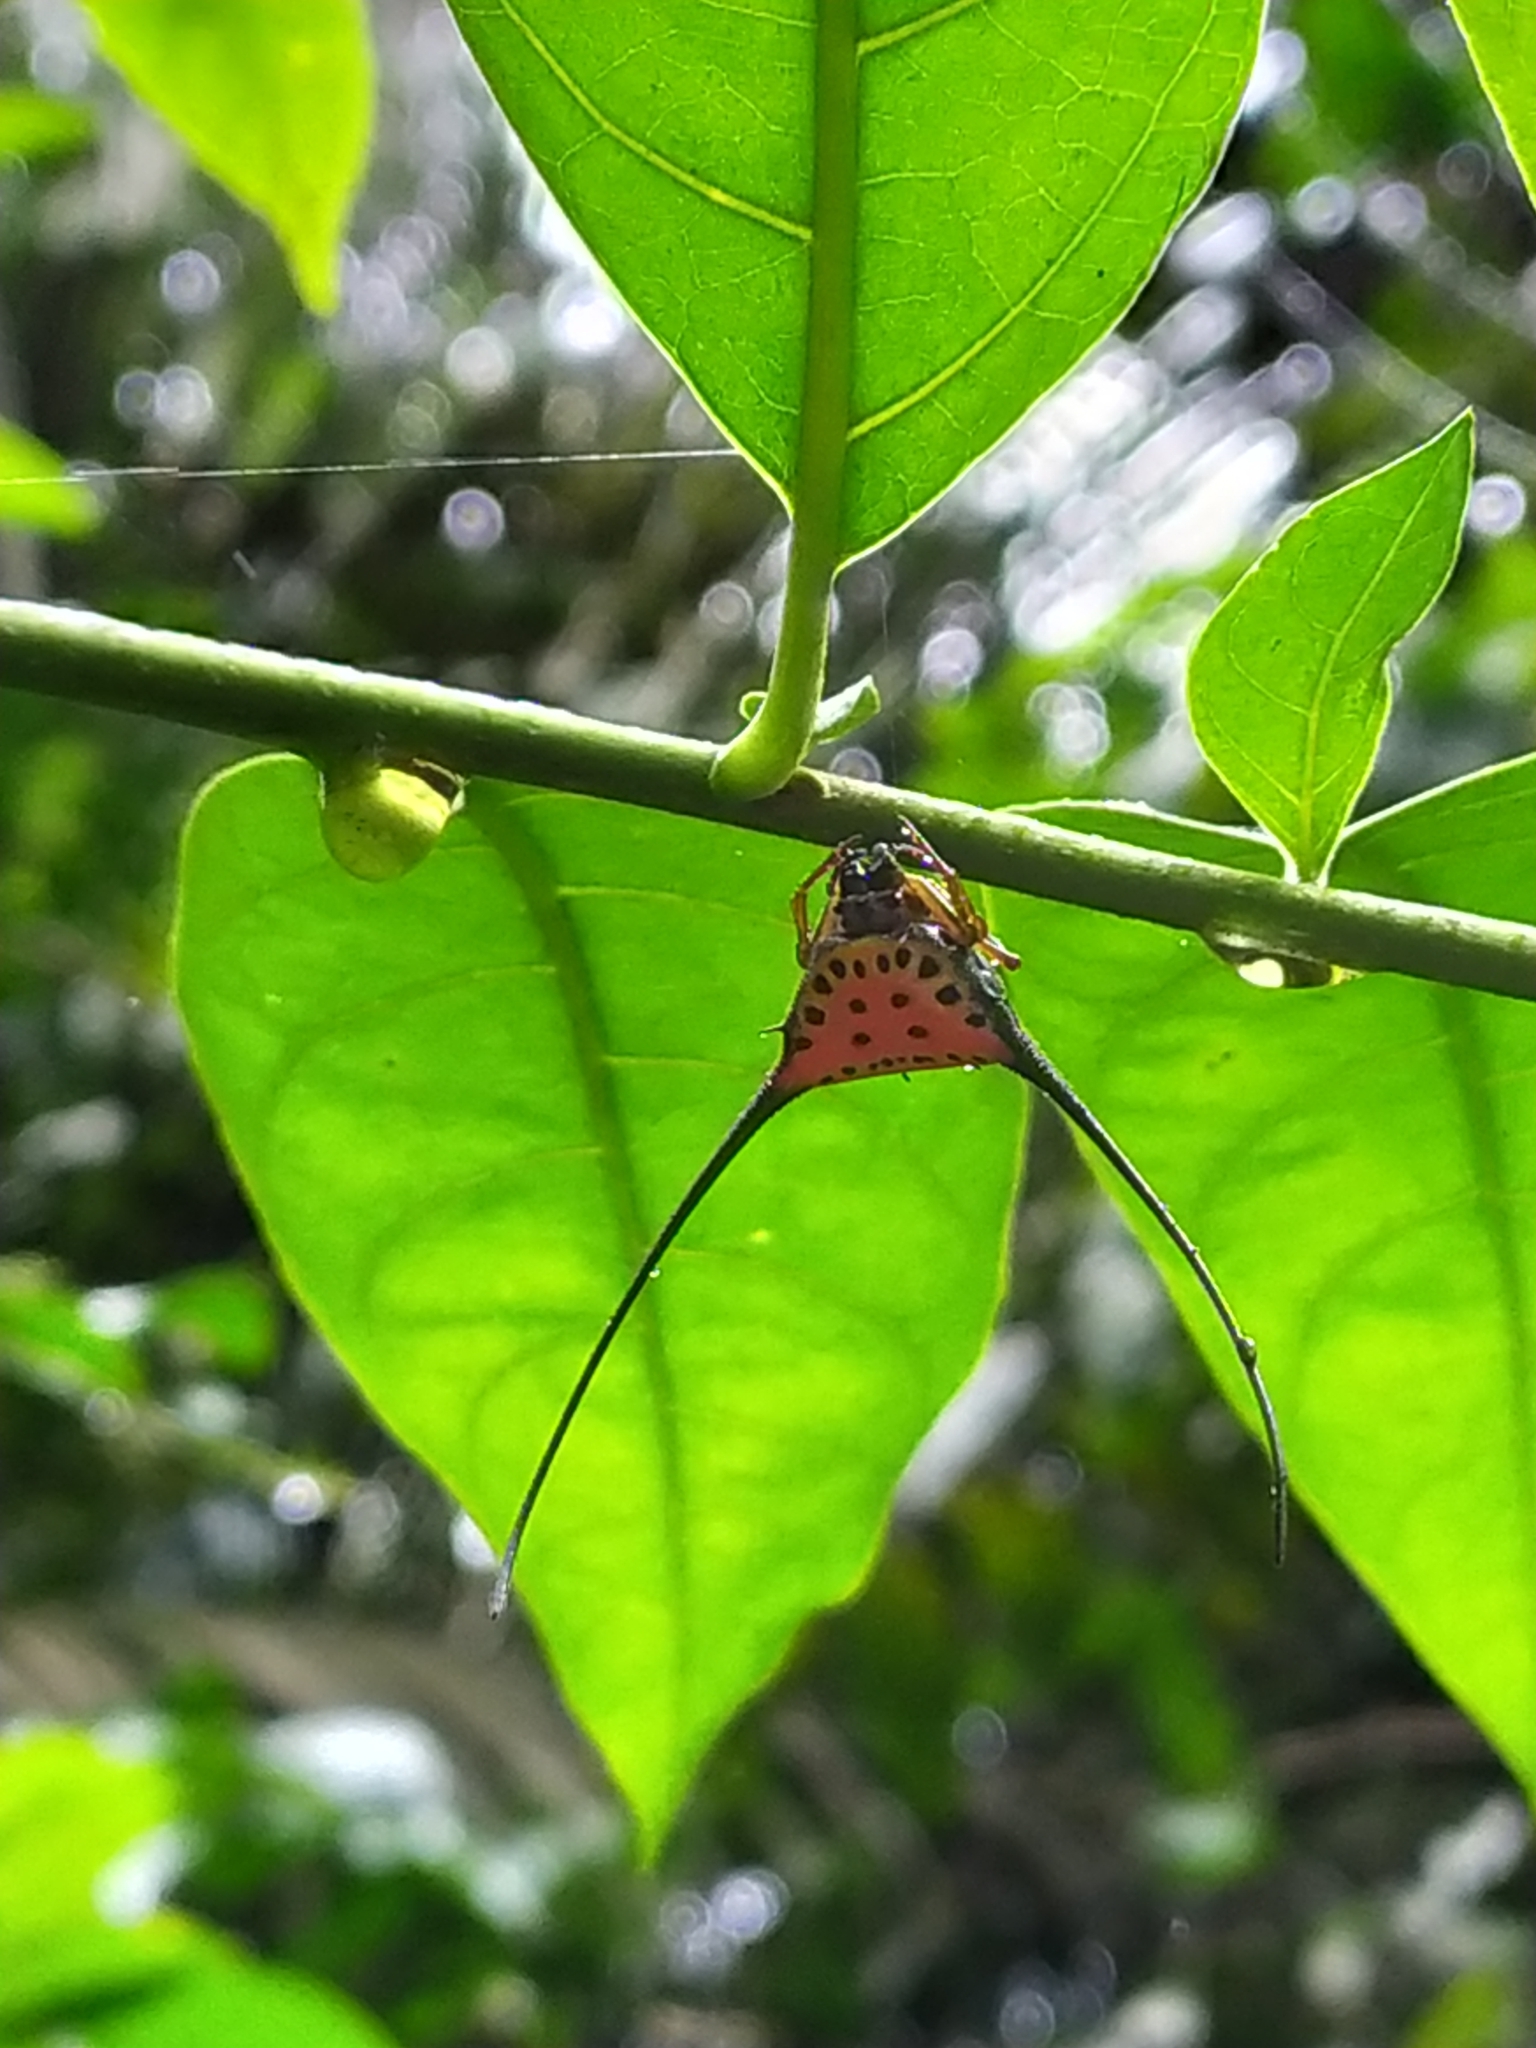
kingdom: Animalia
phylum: Arthropoda
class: Arachnida
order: Araneae
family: Araneidae
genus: Macracantha
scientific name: Macracantha arcuata
